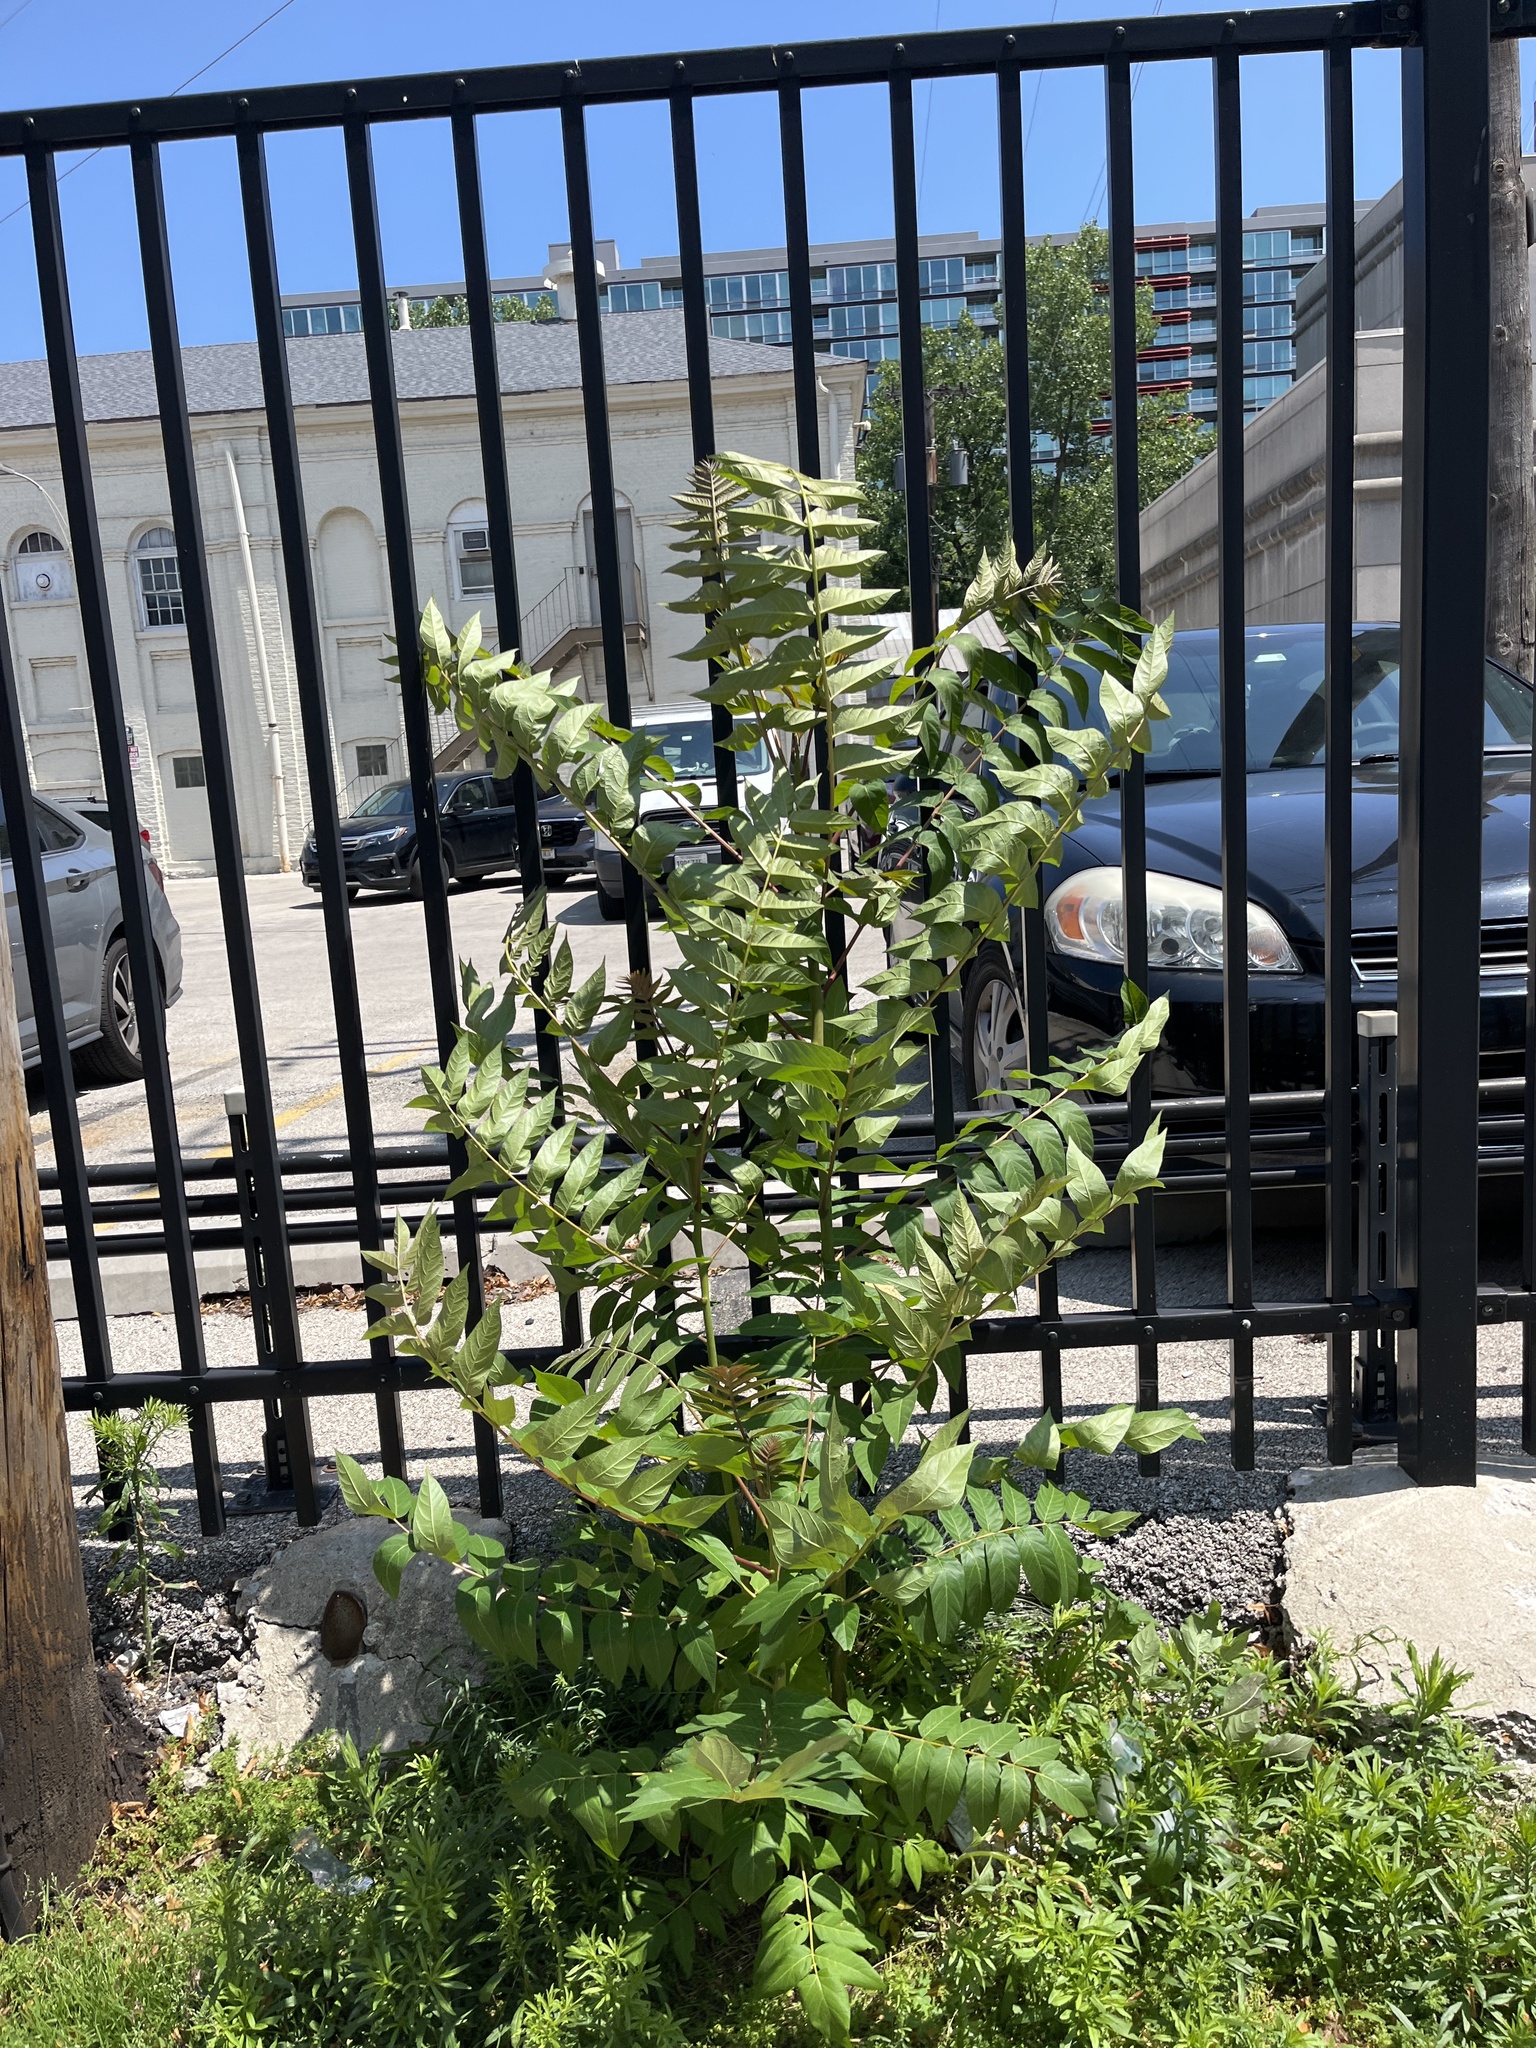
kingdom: Plantae
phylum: Tracheophyta
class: Magnoliopsida
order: Sapindales
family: Simaroubaceae
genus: Ailanthus
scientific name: Ailanthus altissima
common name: Tree-of-heaven
